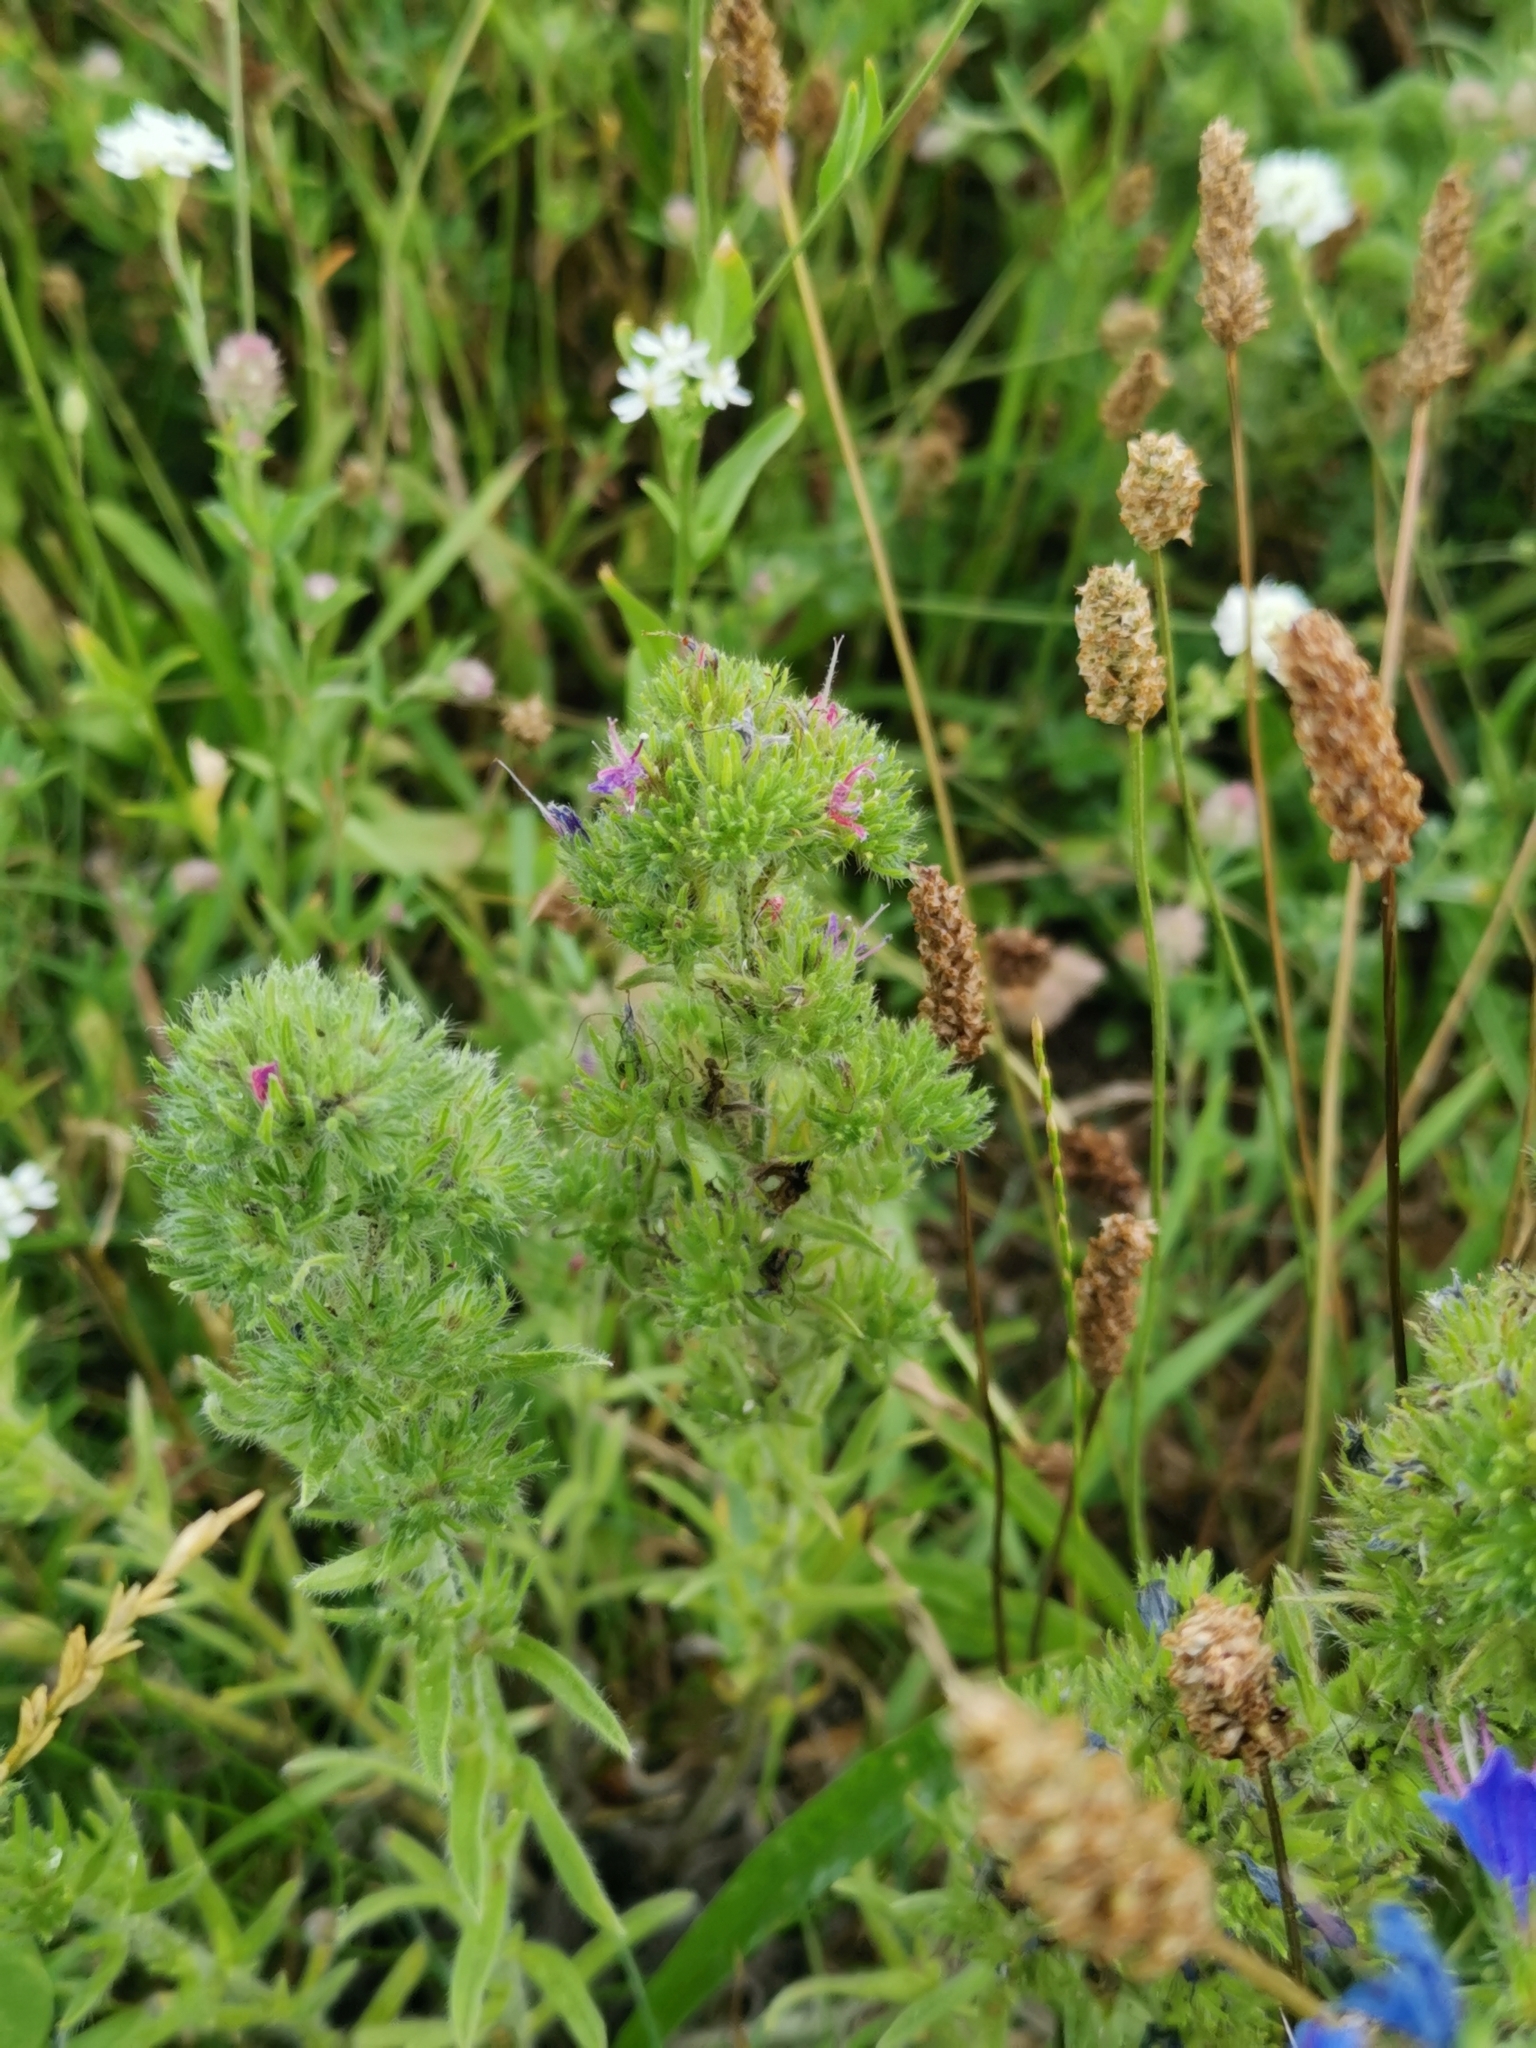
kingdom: Animalia
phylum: Arthropoda
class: Arachnida
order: Trombidiformes
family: Eriophyidae
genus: Aceria
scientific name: Aceria echii
